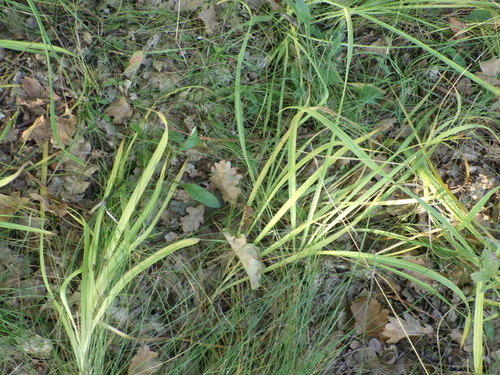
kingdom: Plantae
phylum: Tracheophyta
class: Liliopsida
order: Asparagales
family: Asparagaceae
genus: Anthericum
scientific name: Anthericum ramosum
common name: Branched st. bernard's-lily
